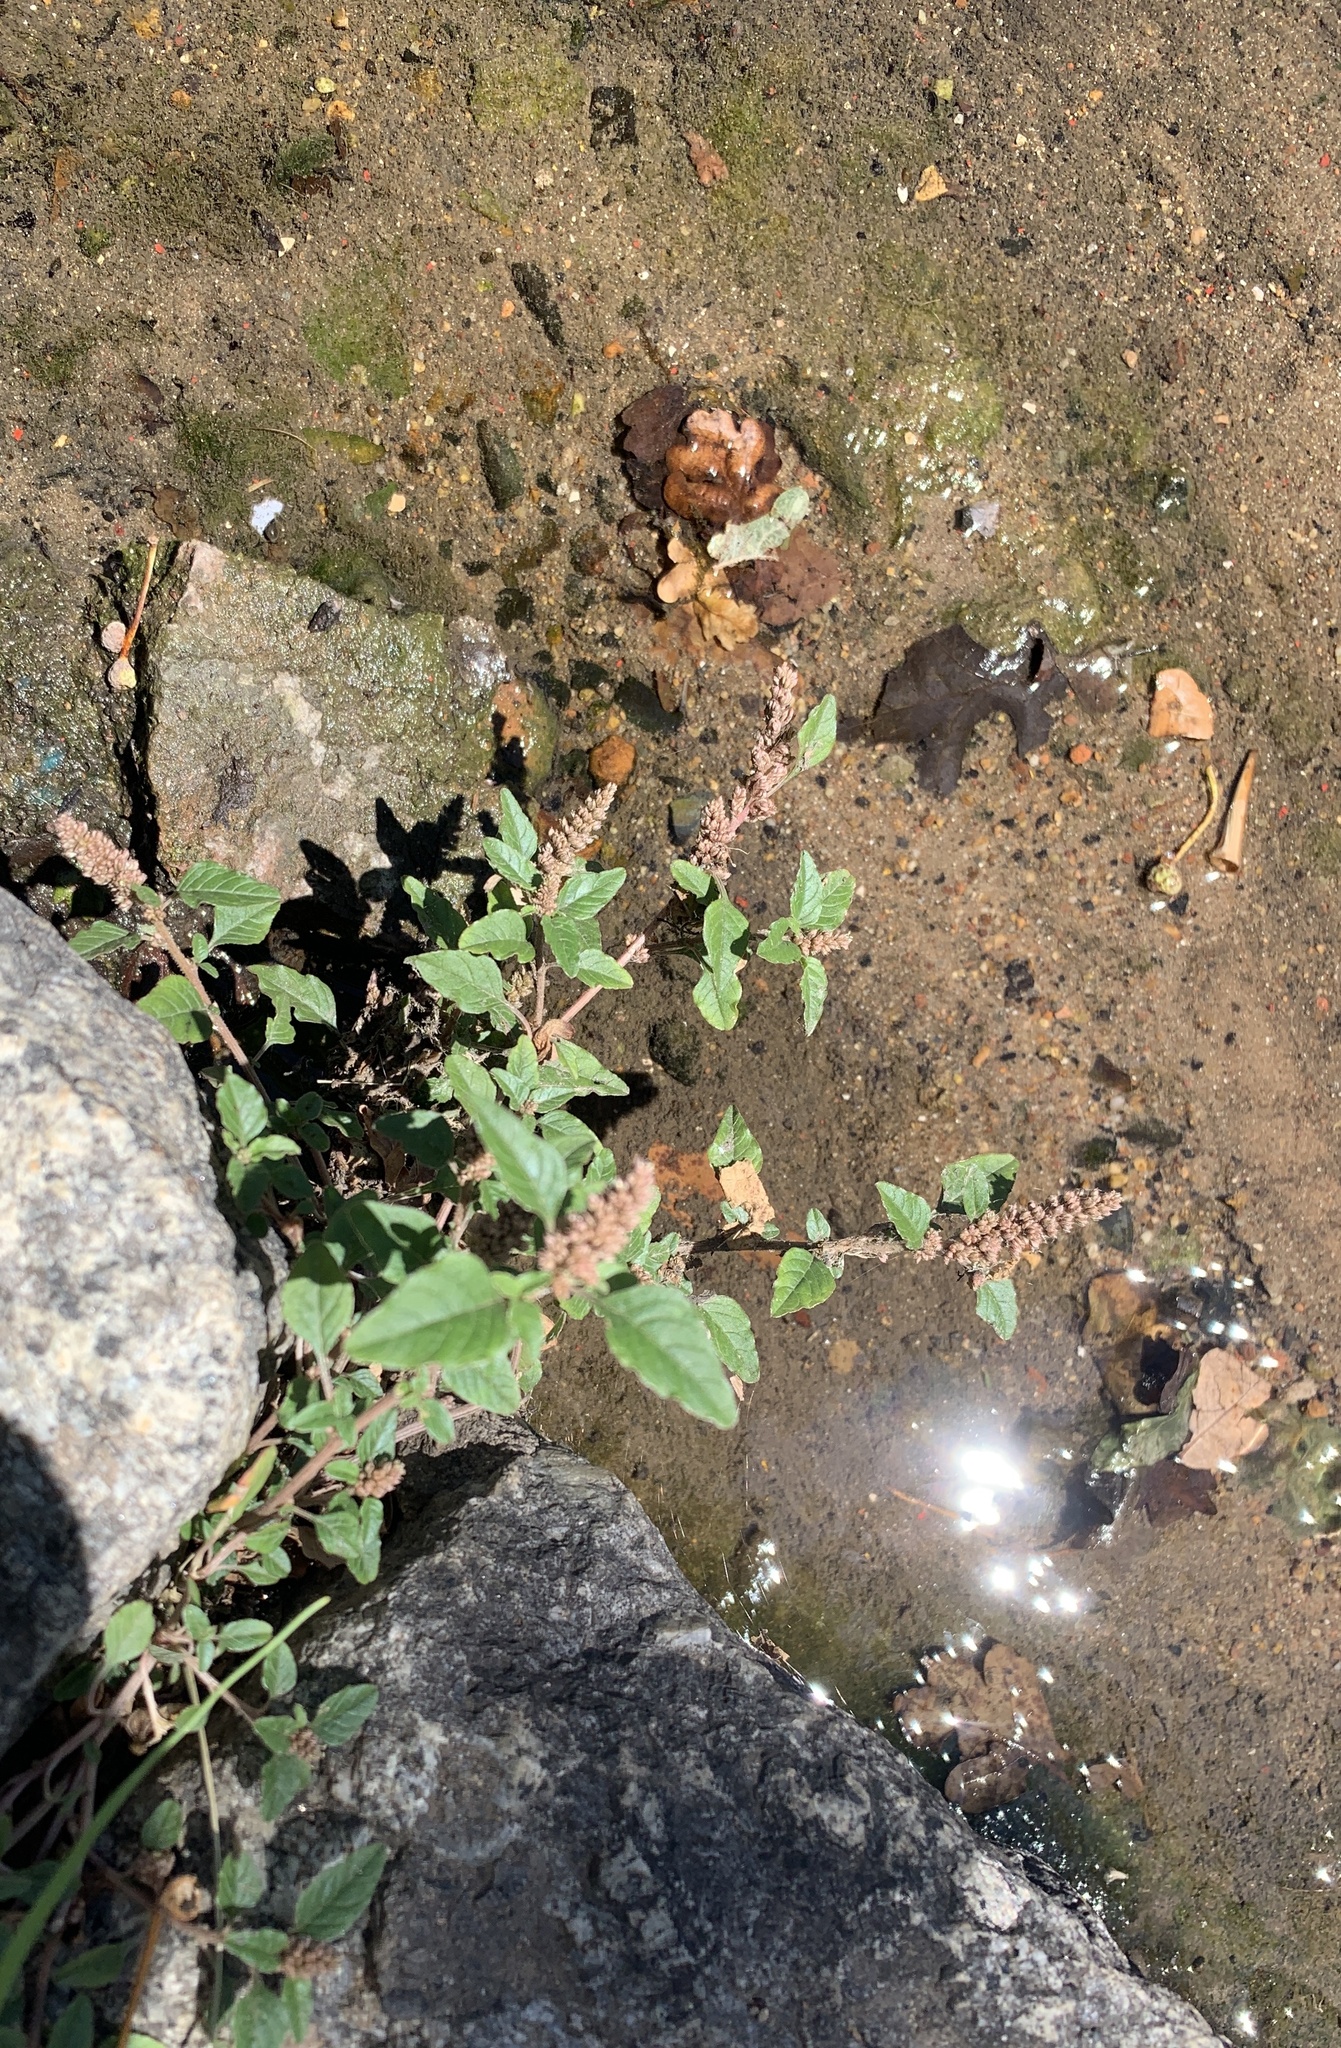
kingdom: Plantae
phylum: Tracheophyta
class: Magnoliopsida
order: Caryophyllales
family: Amaranthaceae
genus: Amaranthus
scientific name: Amaranthus deflexus
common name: Perennial pigweed
